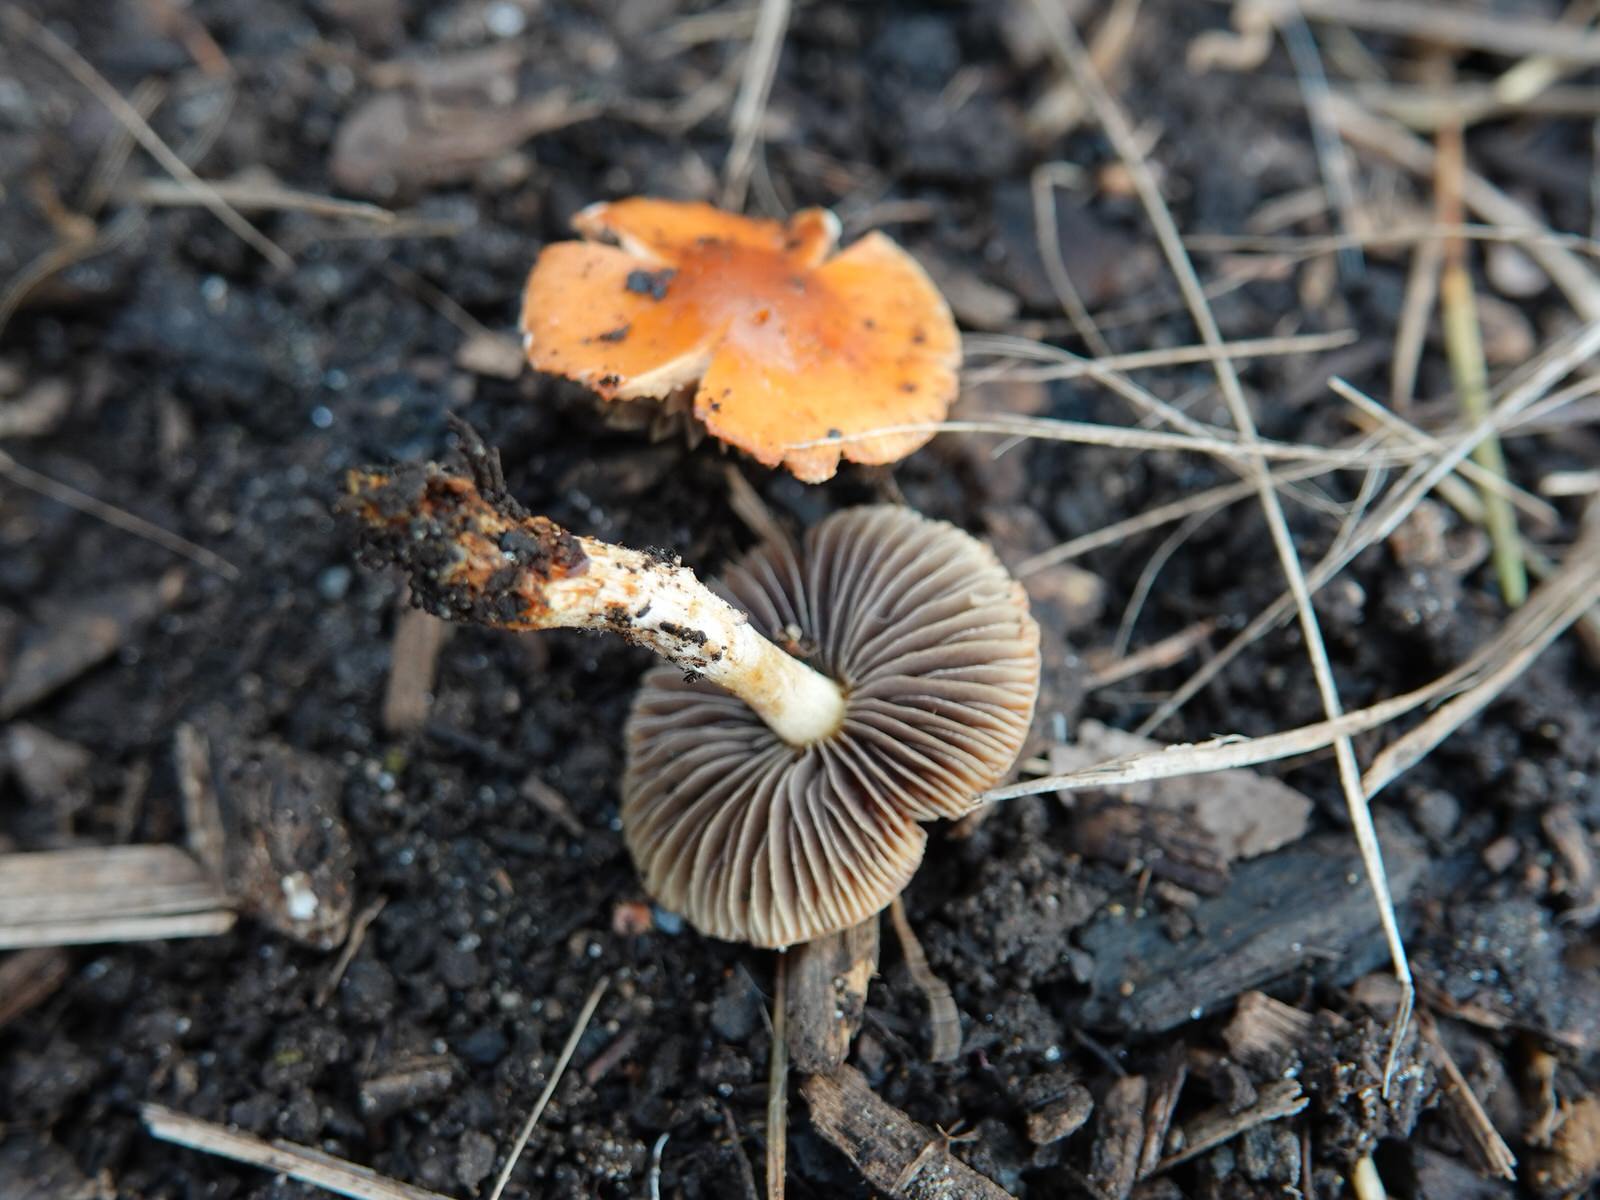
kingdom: Fungi
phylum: Basidiomycota
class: Agaricomycetes
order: Agaricales
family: Strophariaceae
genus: Leratiomyces
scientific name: Leratiomyces ceres
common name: Redlead roundhead
